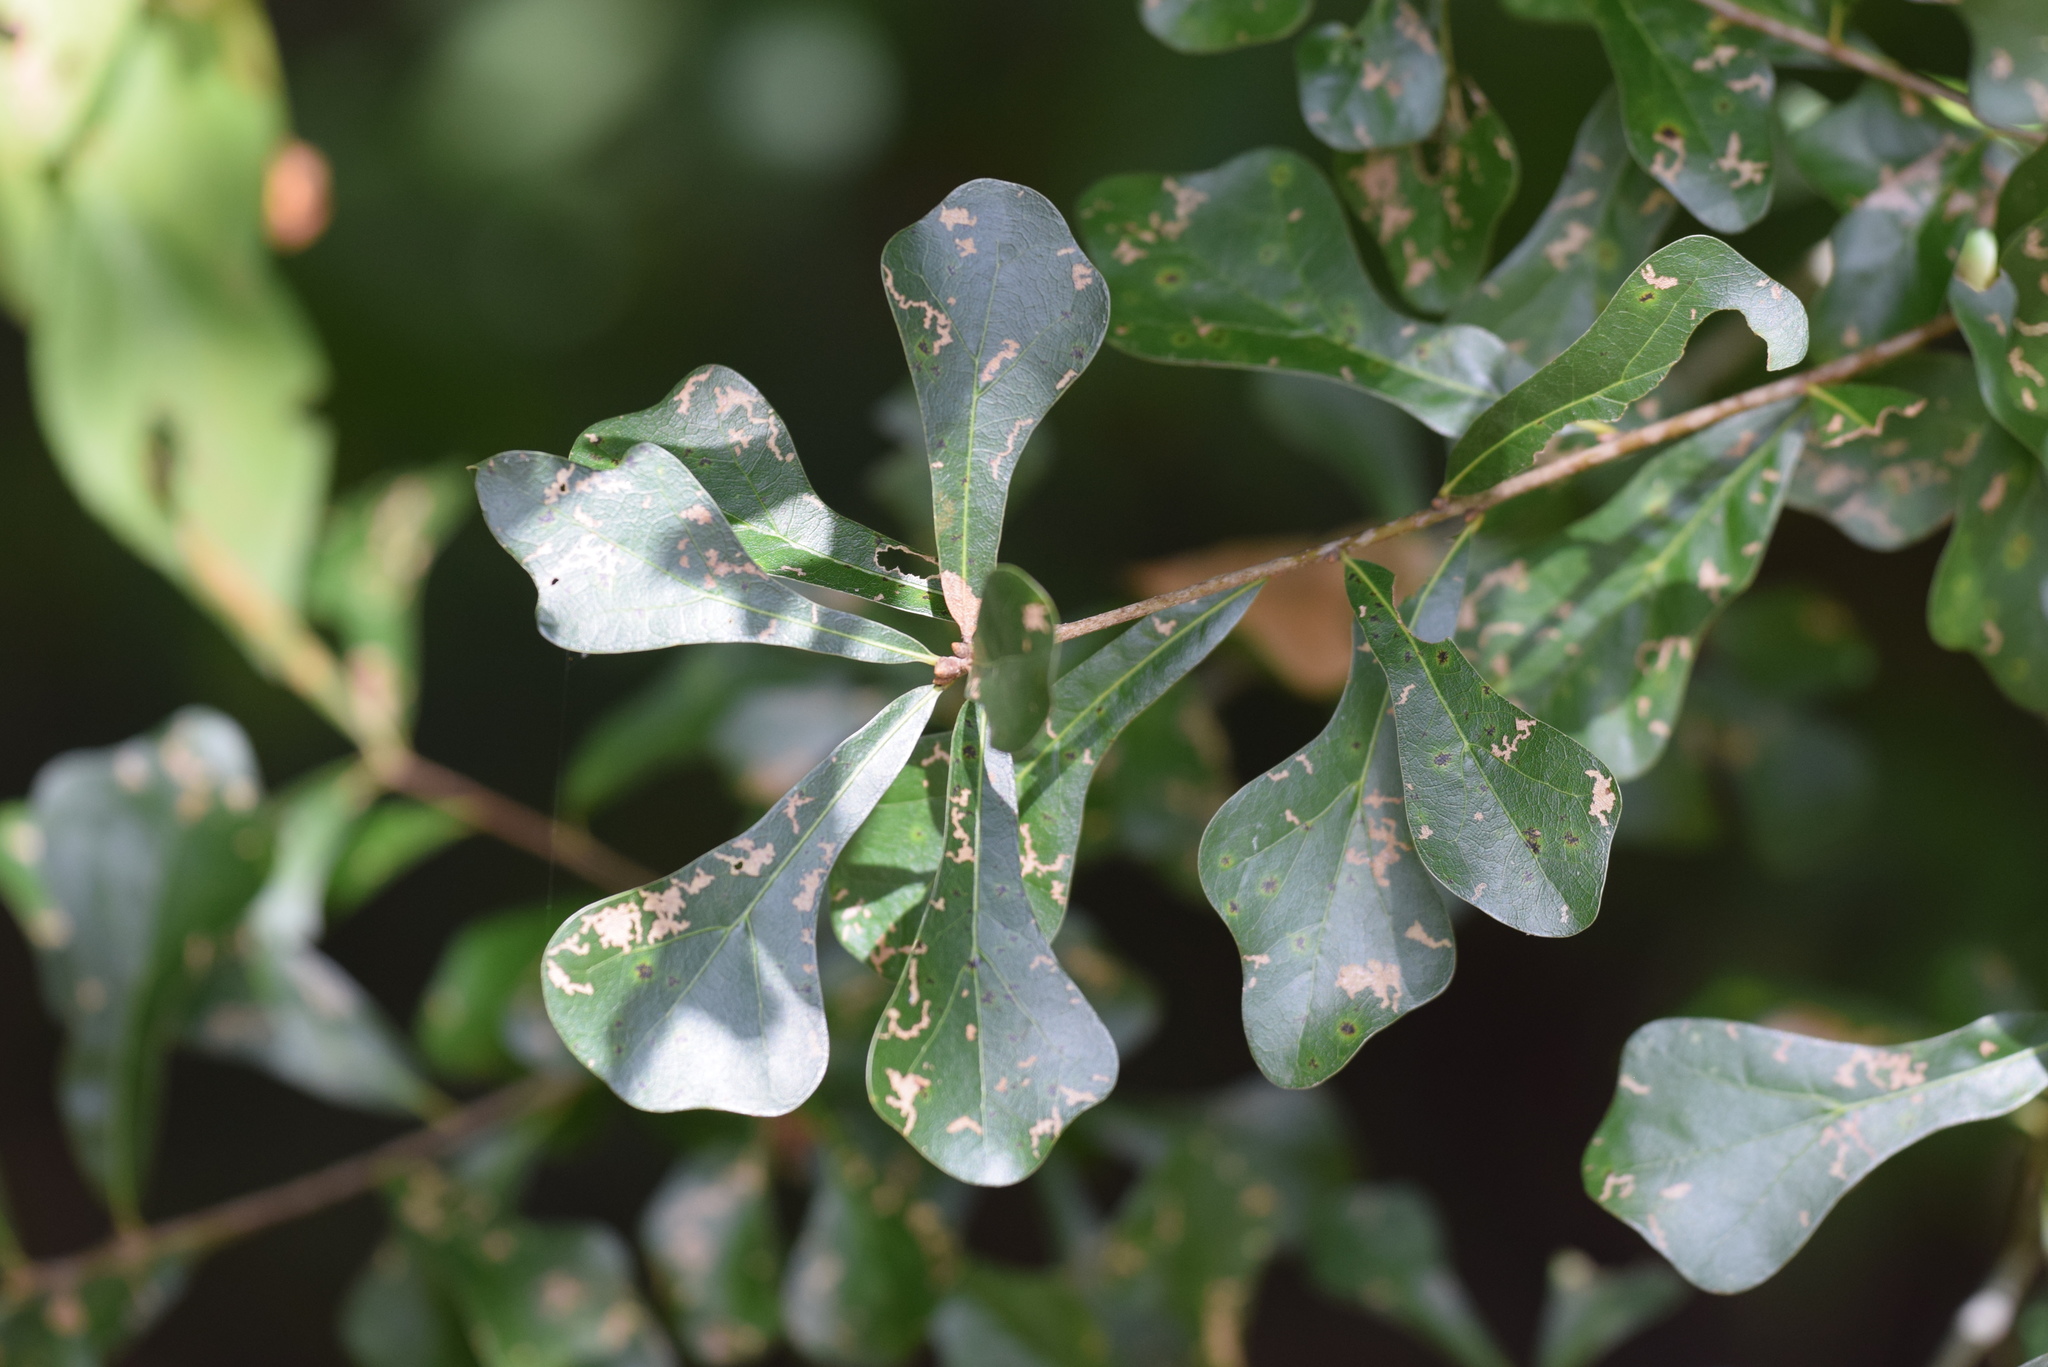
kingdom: Plantae
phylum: Tracheophyta
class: Magnoliopsida
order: Fagales
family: Fagaceae
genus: Quercus
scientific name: Quercus nigra
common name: Water oak
